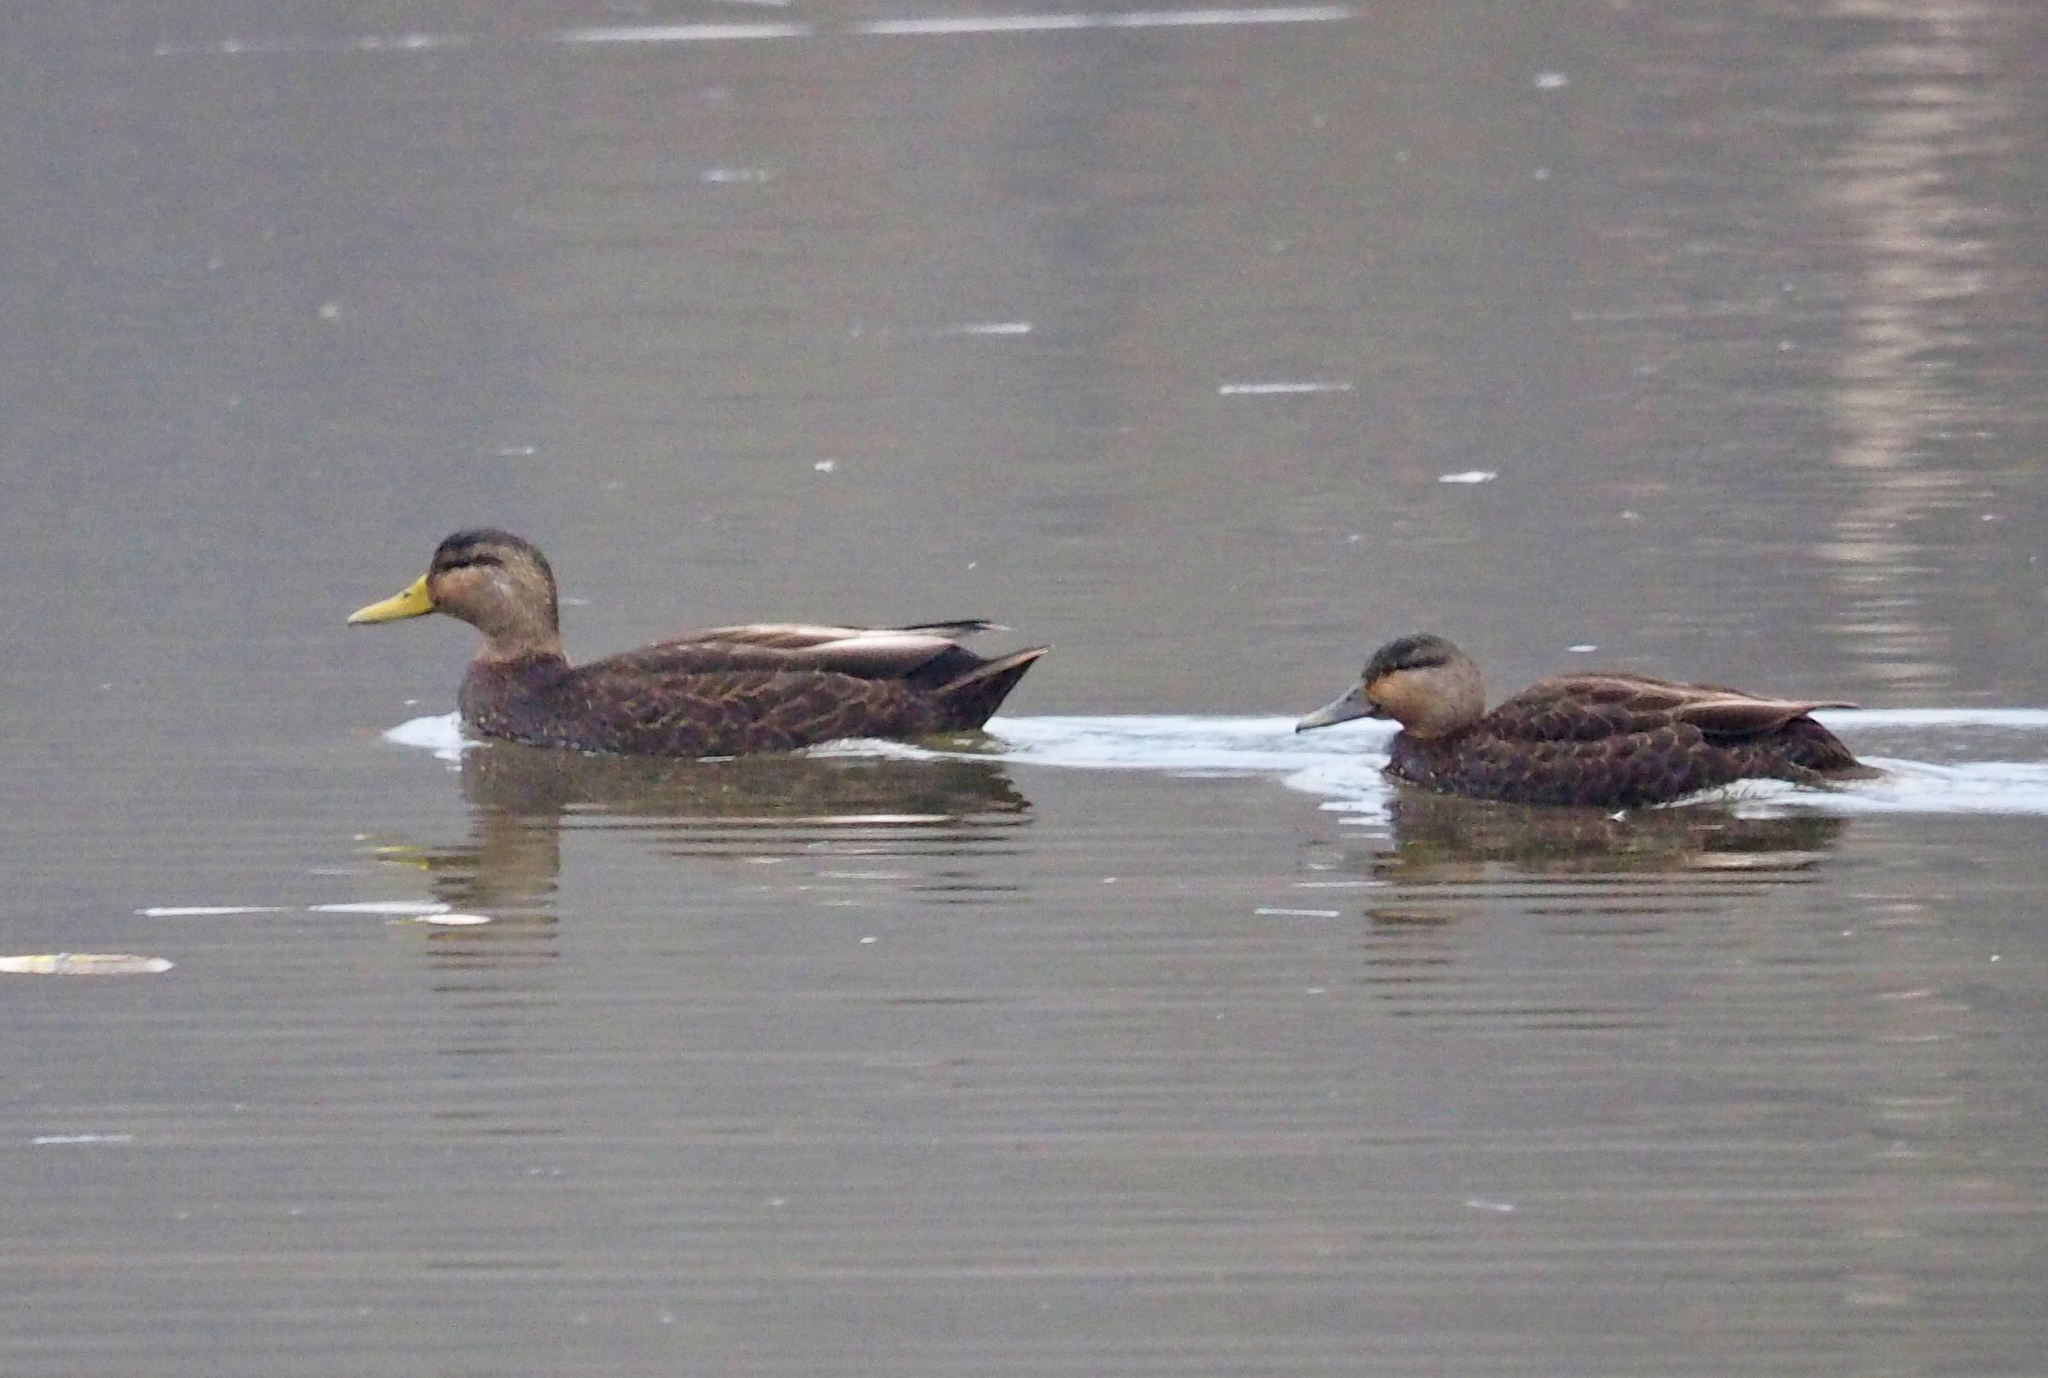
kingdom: Animalia
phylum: Chordata
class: Aves
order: Anseriformes
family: Anatidae
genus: Anas
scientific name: Anas rubripes
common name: American black duck
